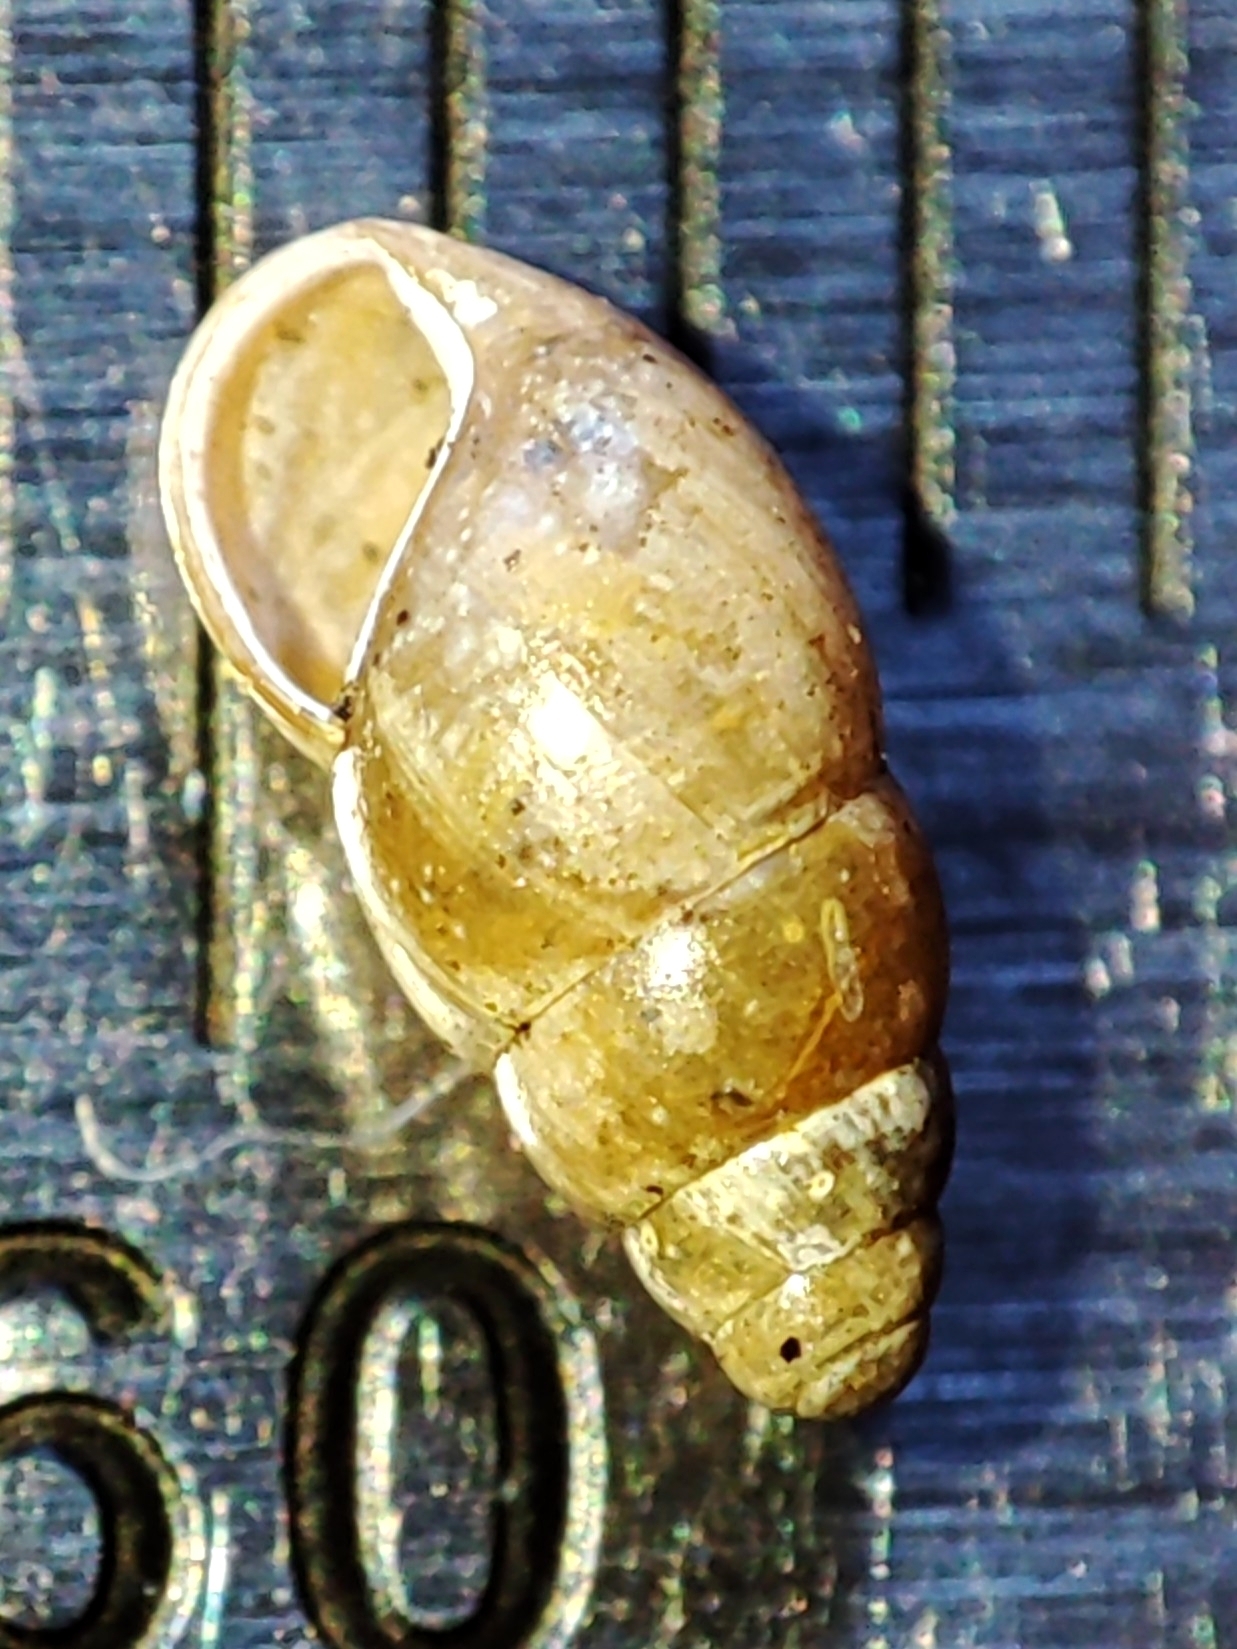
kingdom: Animalia
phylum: Mollusca
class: Gastropoda
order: Stylommatophora
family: Cochlicopidae
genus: Cochlicopa
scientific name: Cochlicopa lubrica
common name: Glossy pillar snail
